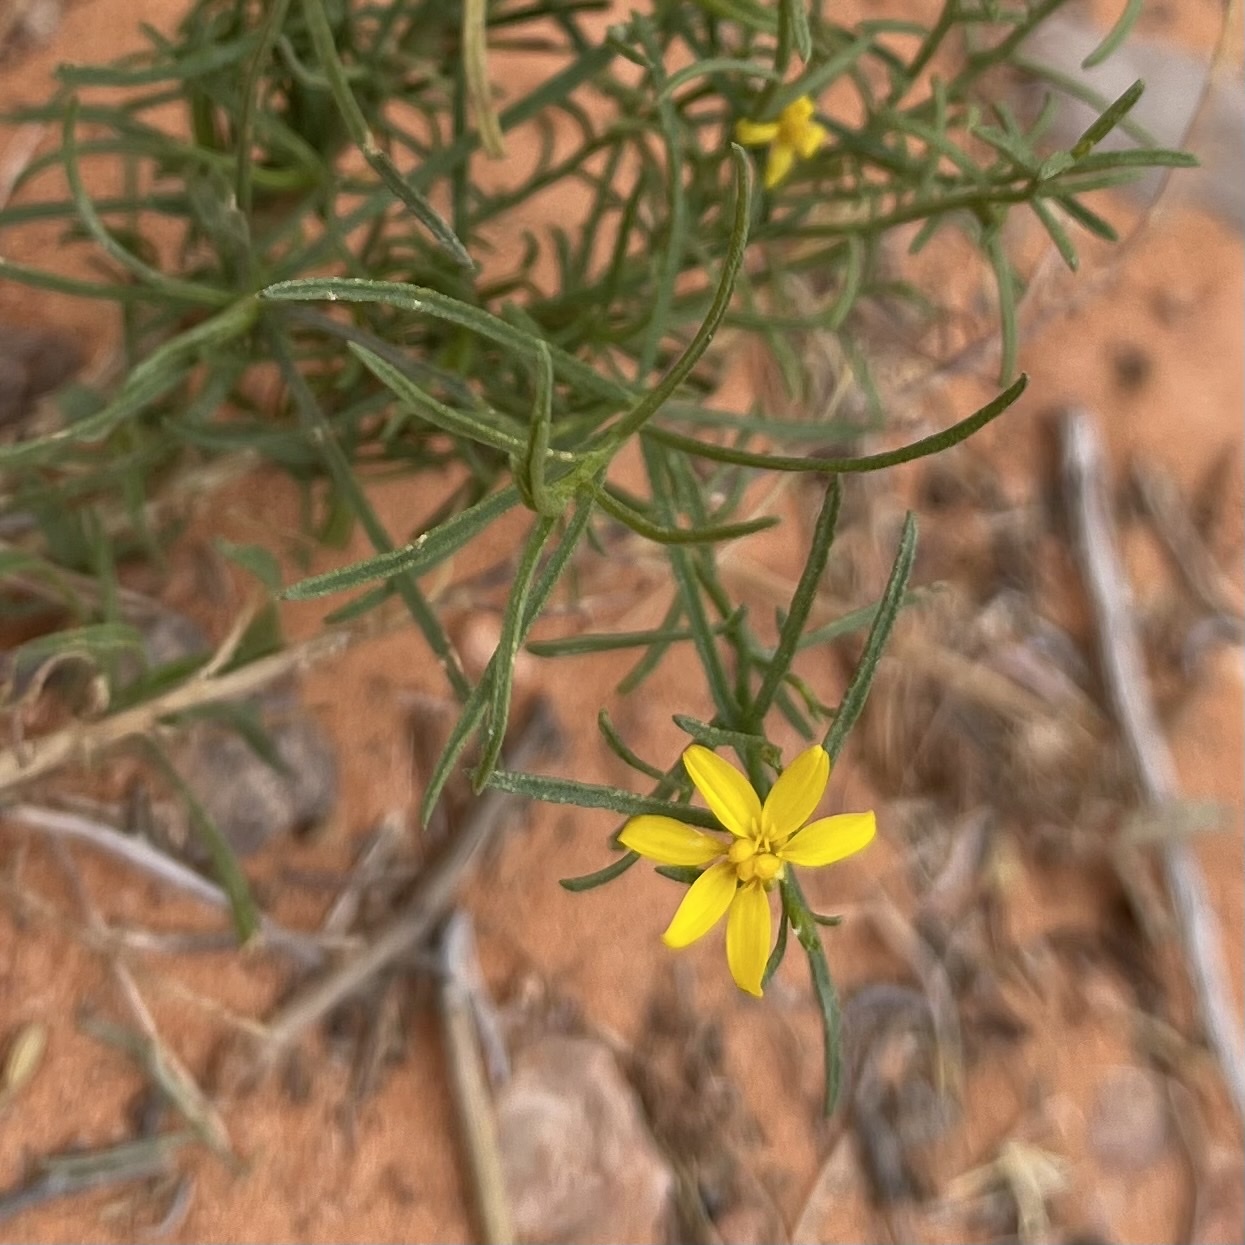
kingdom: Plantae
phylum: Tracheophyta
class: Magnoliopsida
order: Asterales
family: Asteraceae
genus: Pectis
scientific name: Pectis papposa
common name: Many-bristle chinchweed
